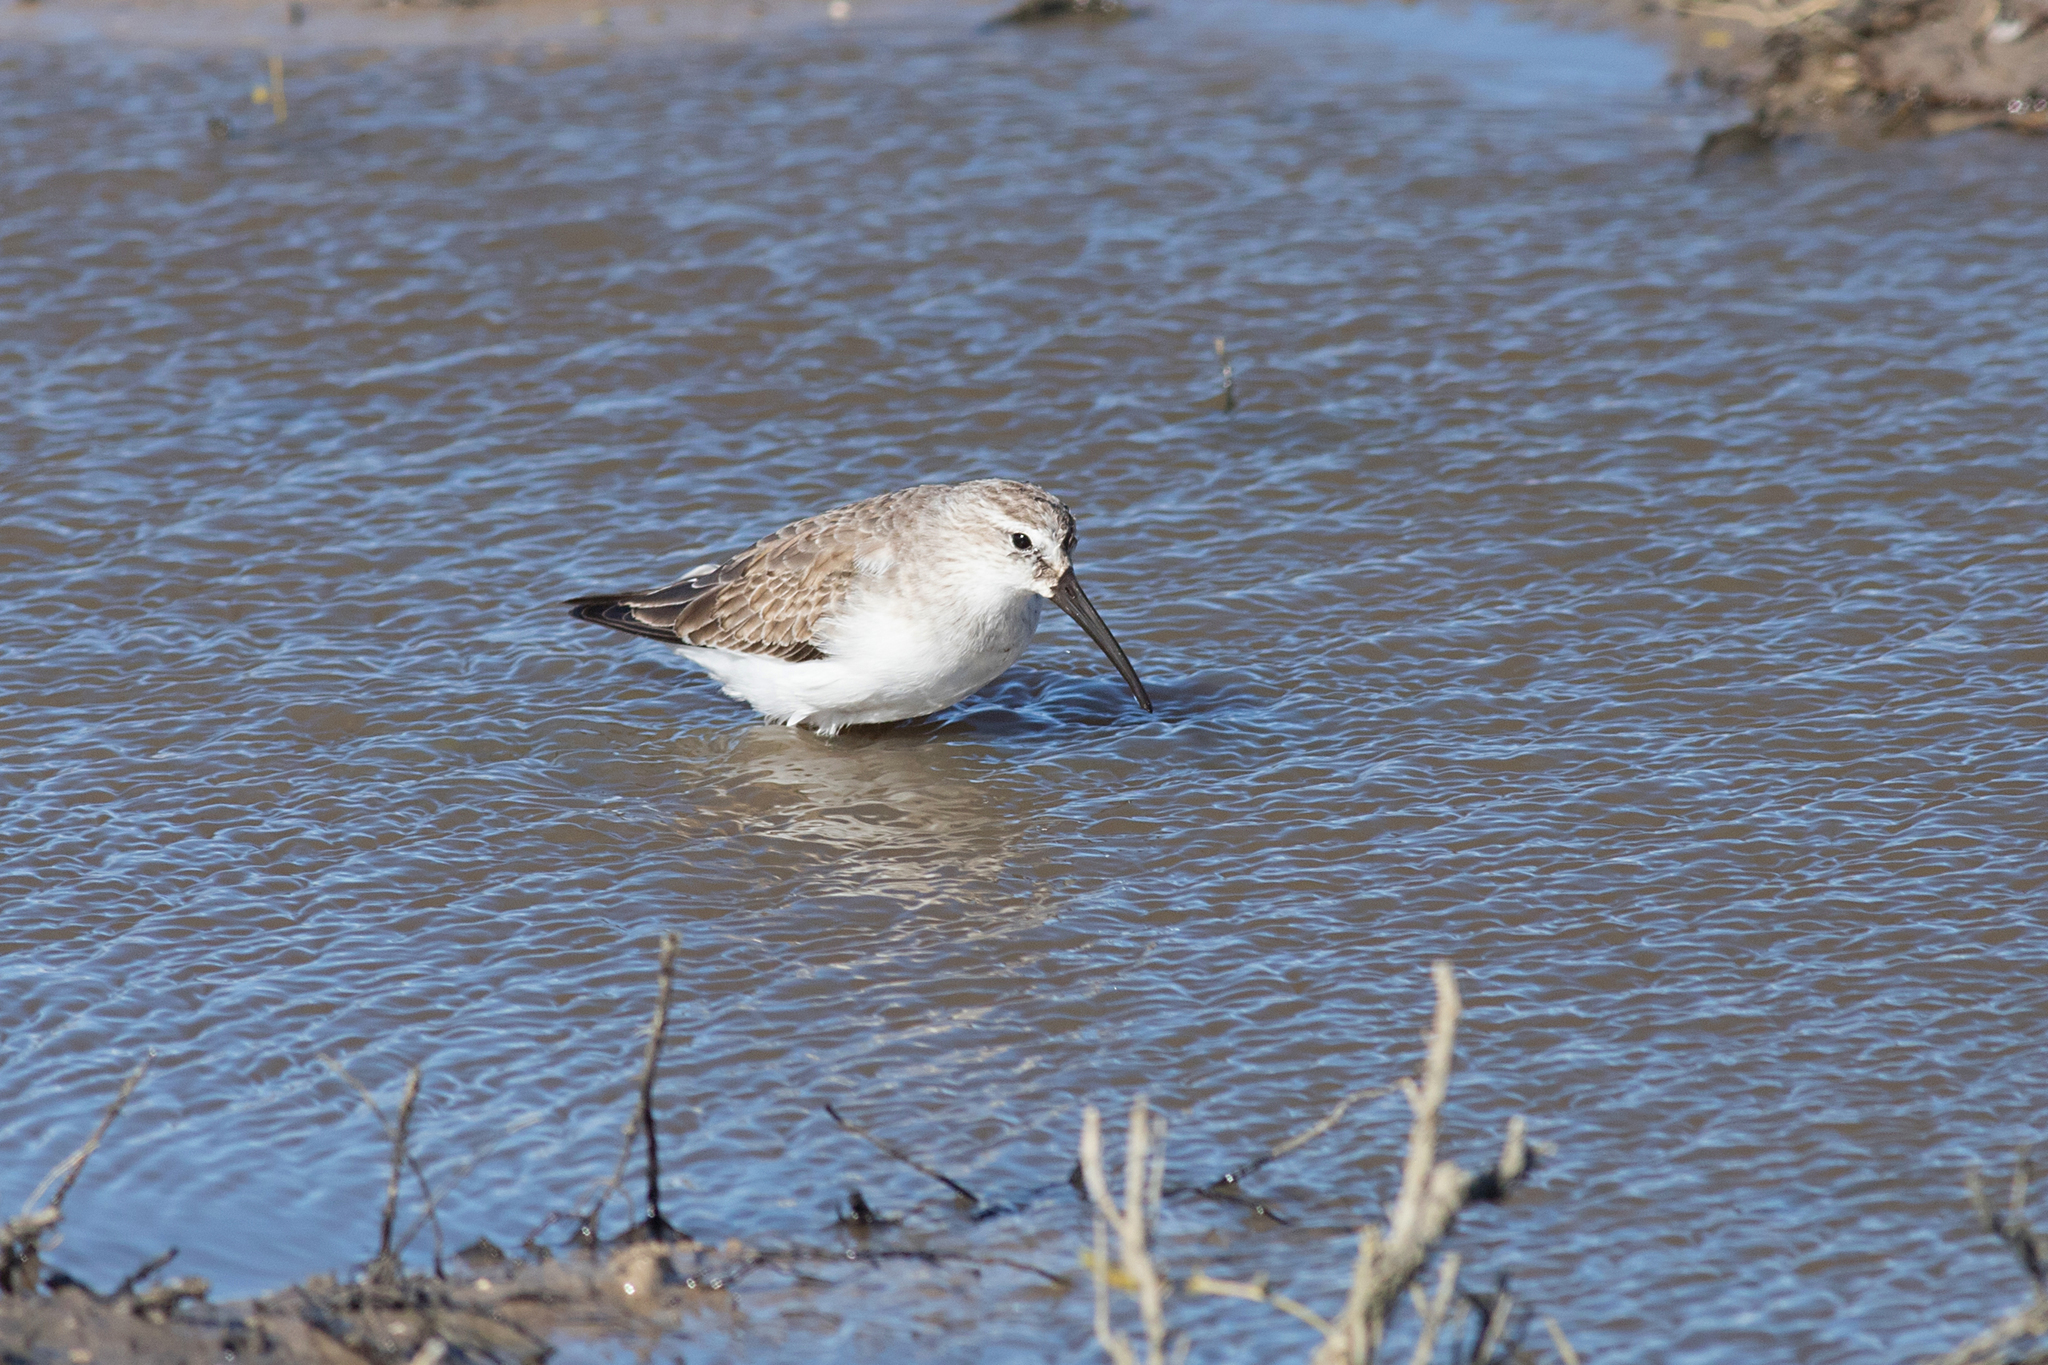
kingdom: Animalia
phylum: Chordata
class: Aves
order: Charadriiformes
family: Scolopacidae
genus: Calidris
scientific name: Calidris ferruginea
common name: Curlew sandpiper
